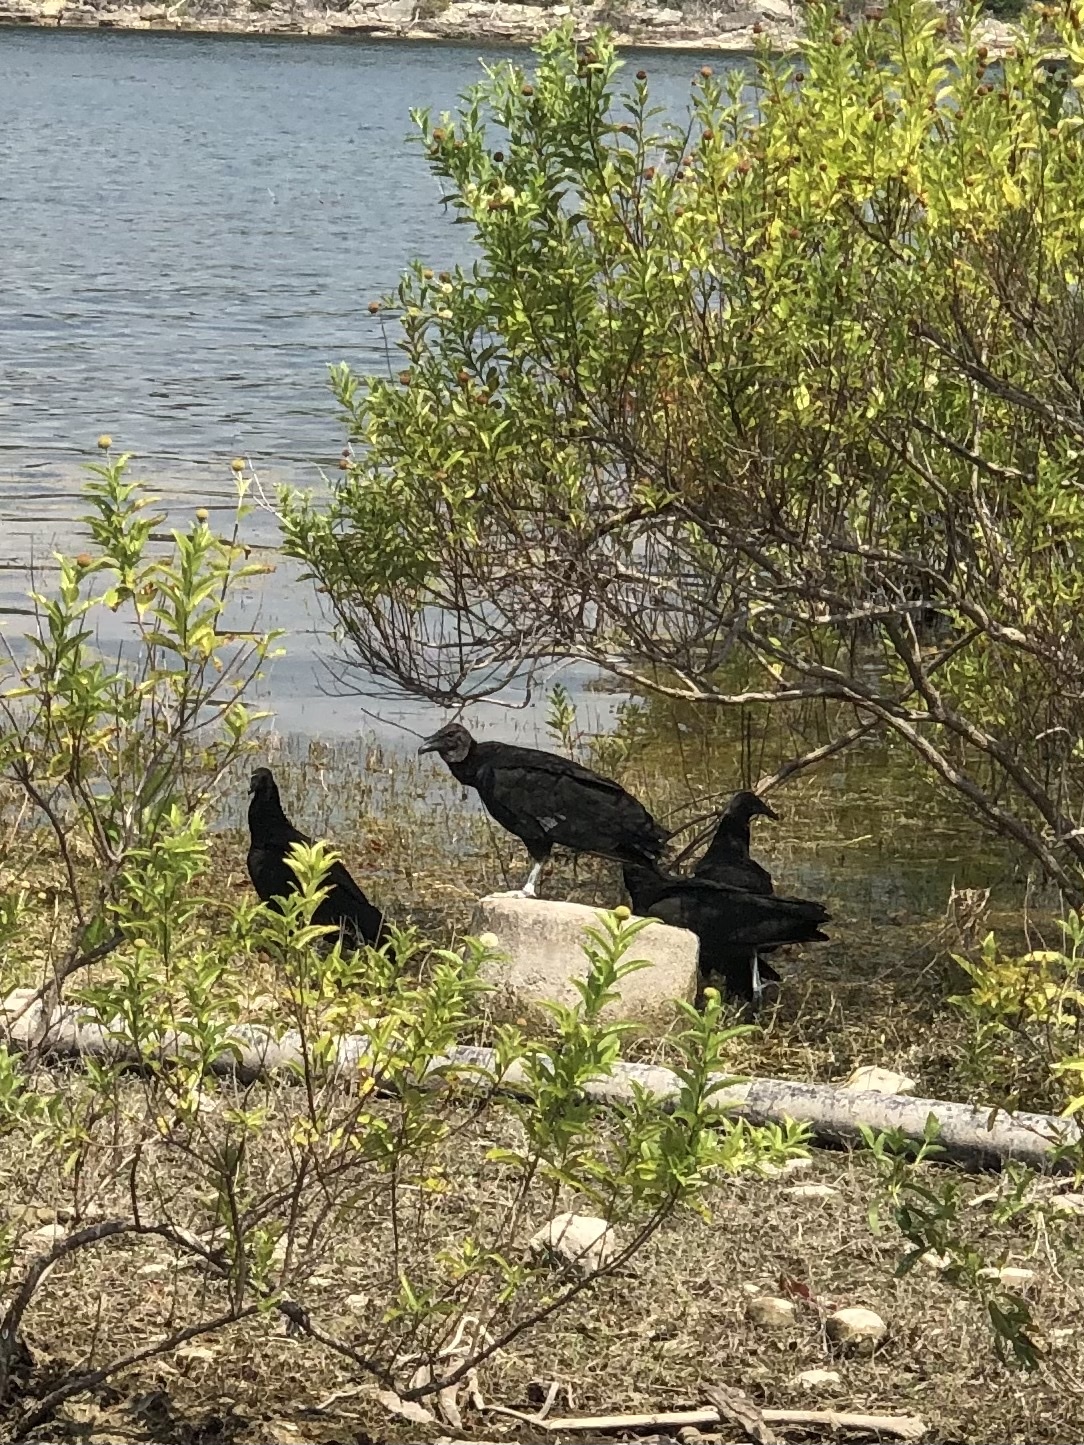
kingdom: Animalia
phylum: Chordata
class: Aves
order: Accipitriformes
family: Cathartidae
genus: Coragyps
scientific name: Coragyps atratus
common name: Black vulture
